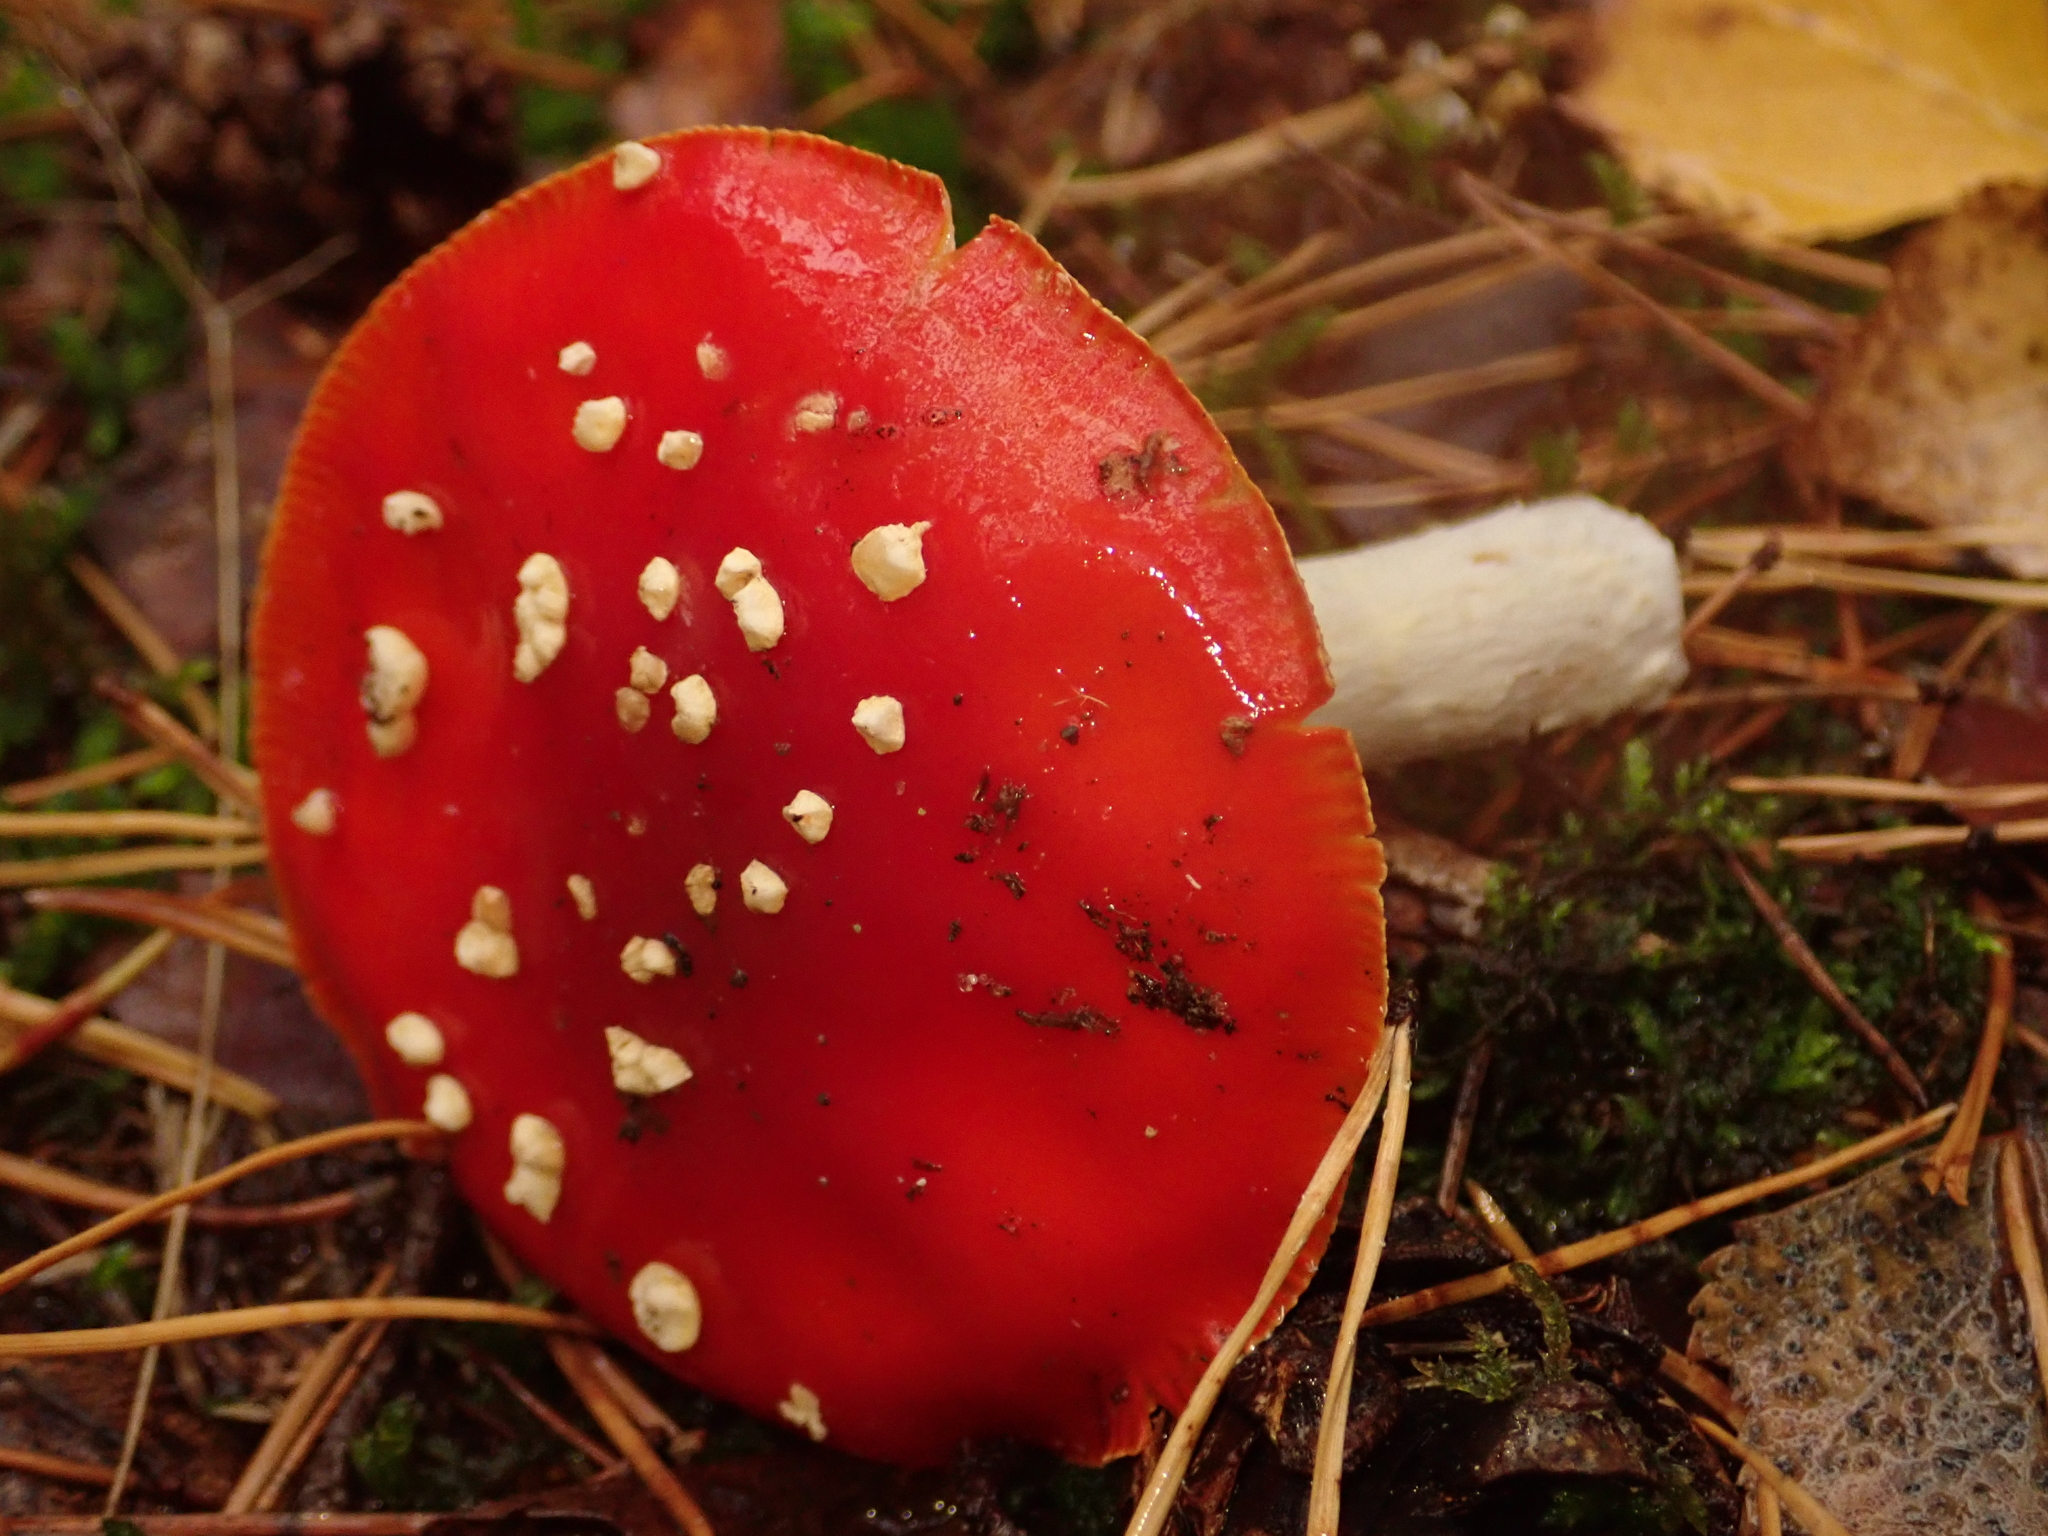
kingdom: Fungi
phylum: Basidiomycota
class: Agaricomycetes
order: Agaricales
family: Amanitaceae
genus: Amanita
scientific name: Amanita muscaria
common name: Fly agaric
